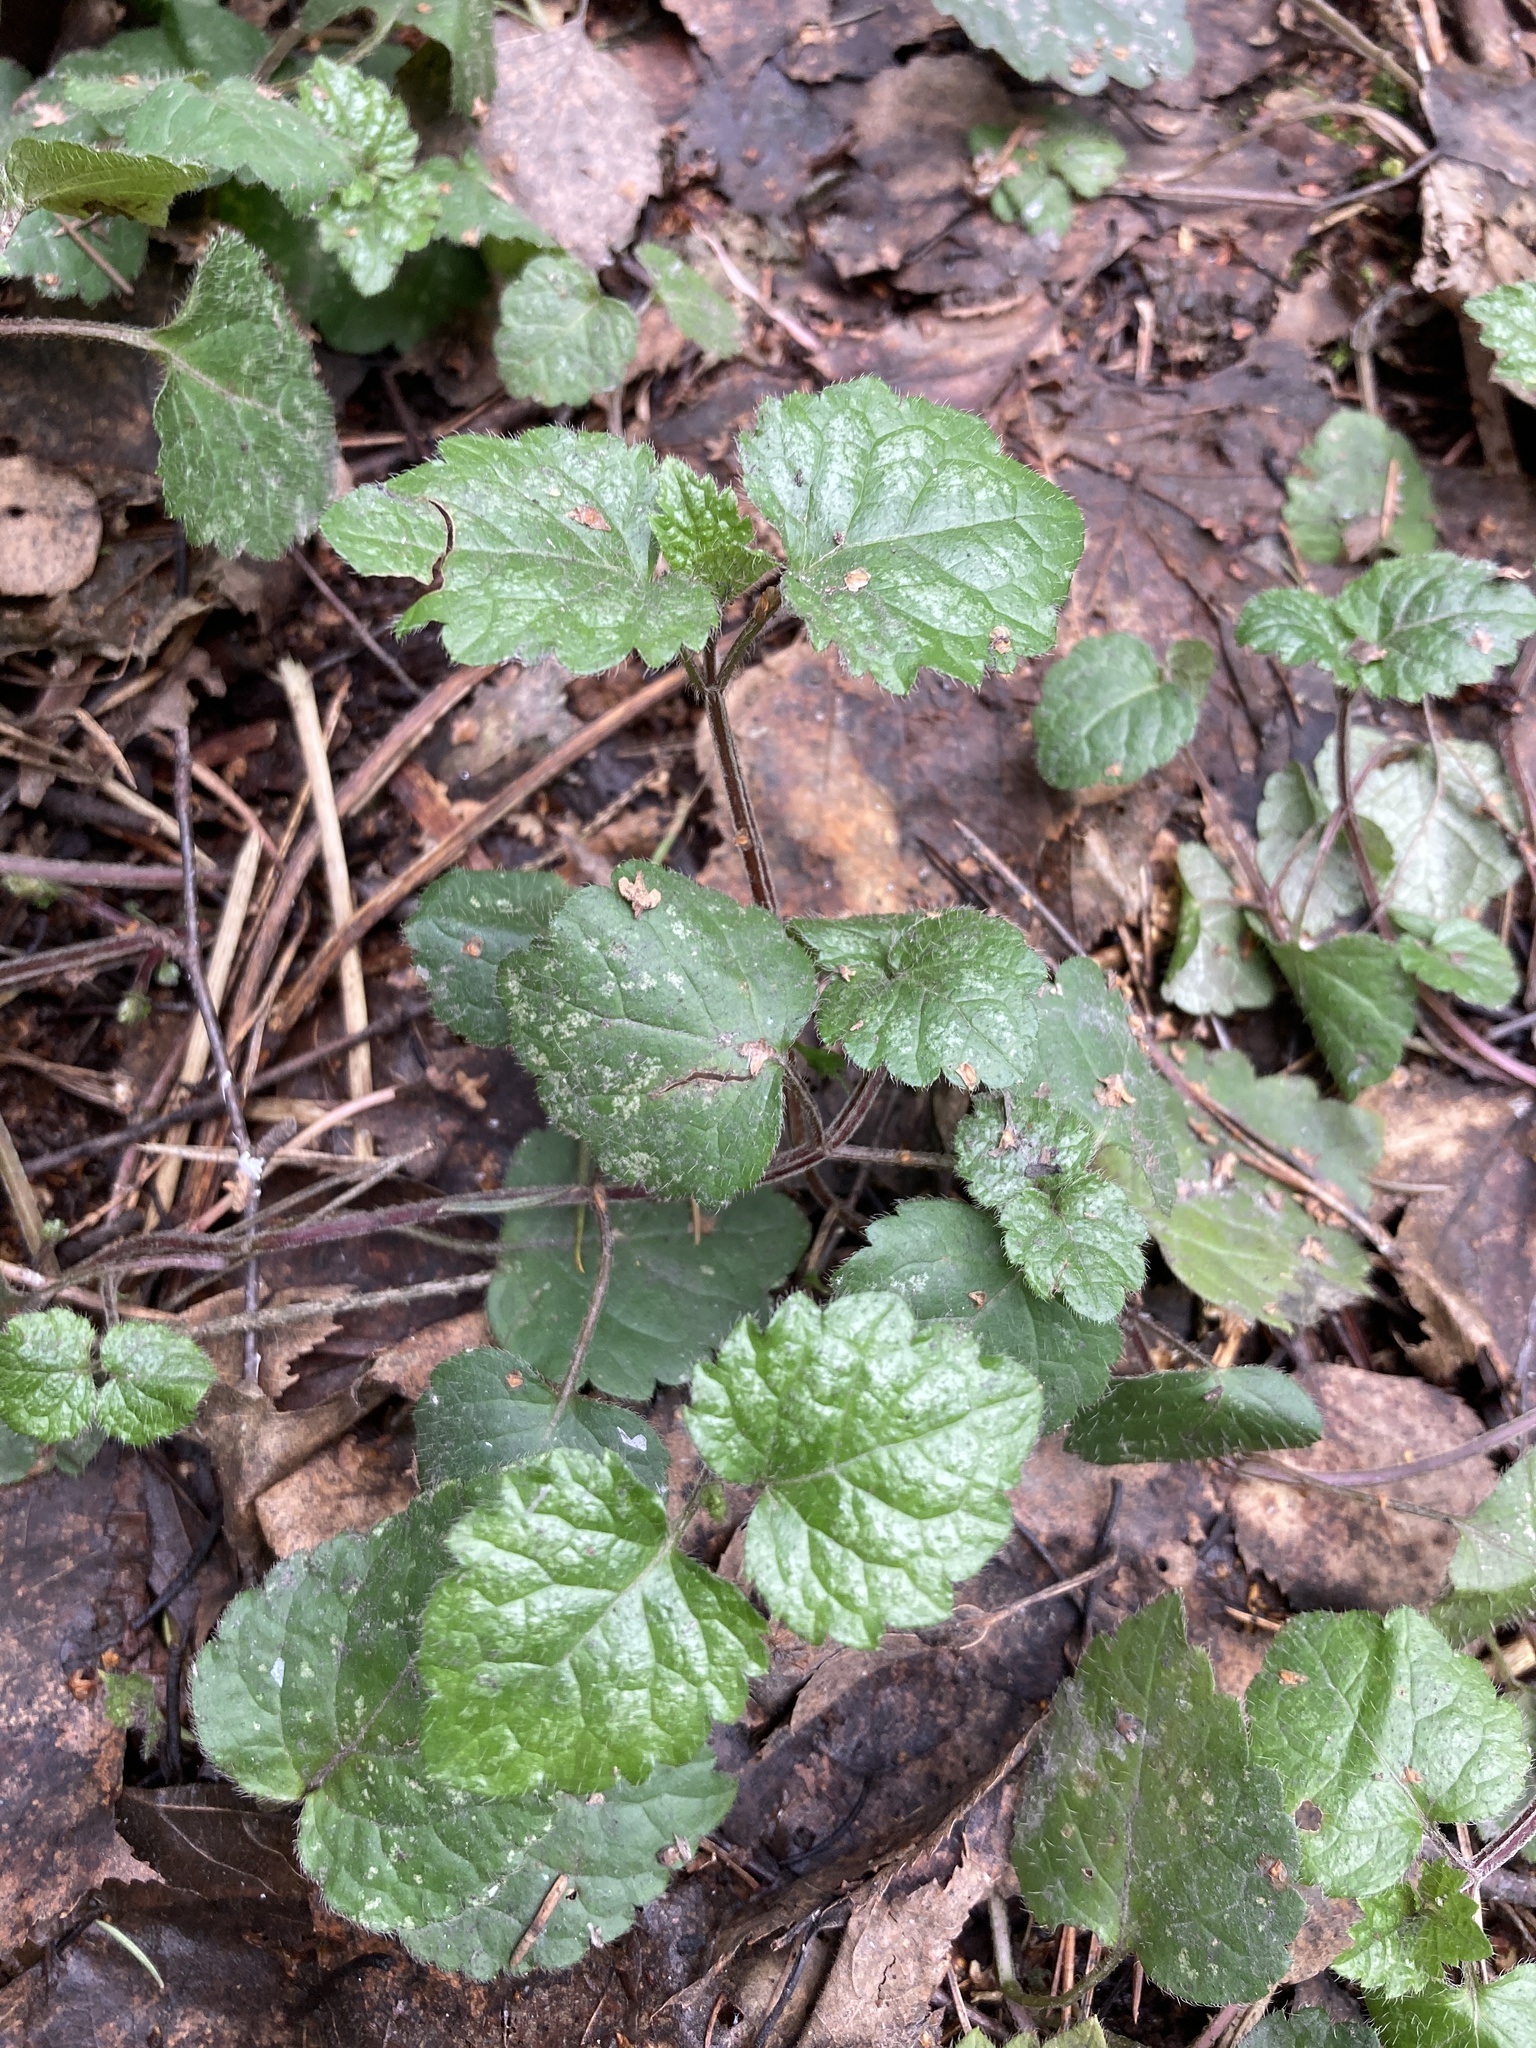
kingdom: Plantae
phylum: Tracheophyta
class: Magnoliopsida
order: Lamiales
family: Lamiaceae
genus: Lamium
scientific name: Lamium galeobdolon
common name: Yellow archangel
